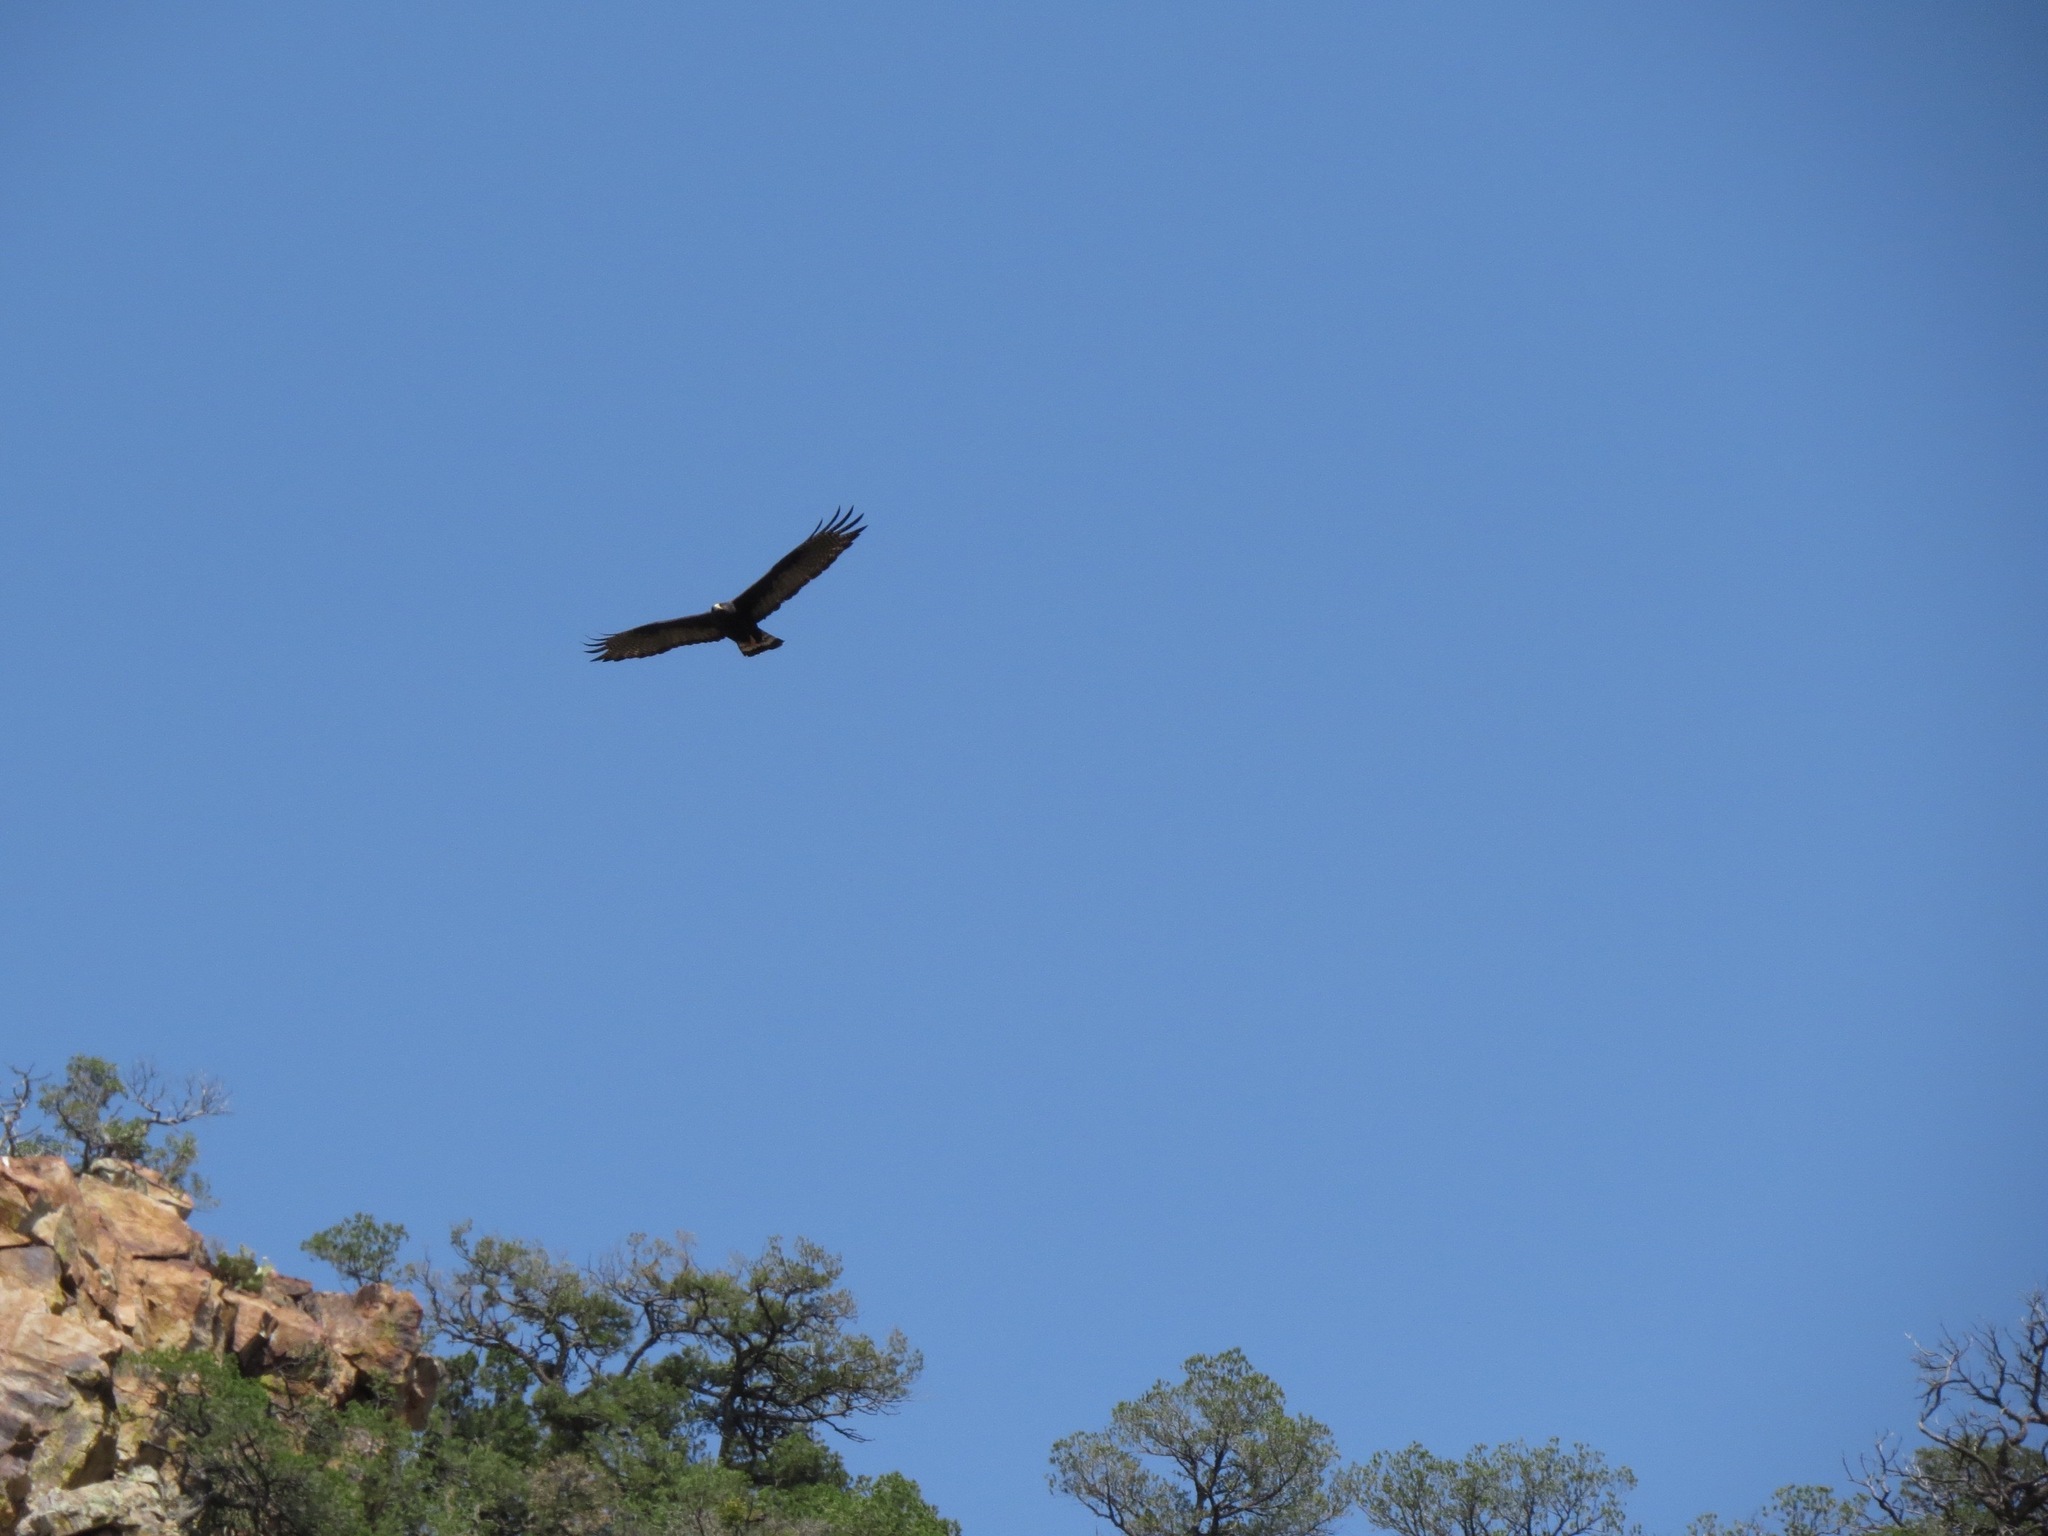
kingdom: Animalia
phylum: Chordata
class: Aves
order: Accipitriformes
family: Accipitridae
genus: Buteo
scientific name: Buteo albonotatus
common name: Zone-tailed hawk
